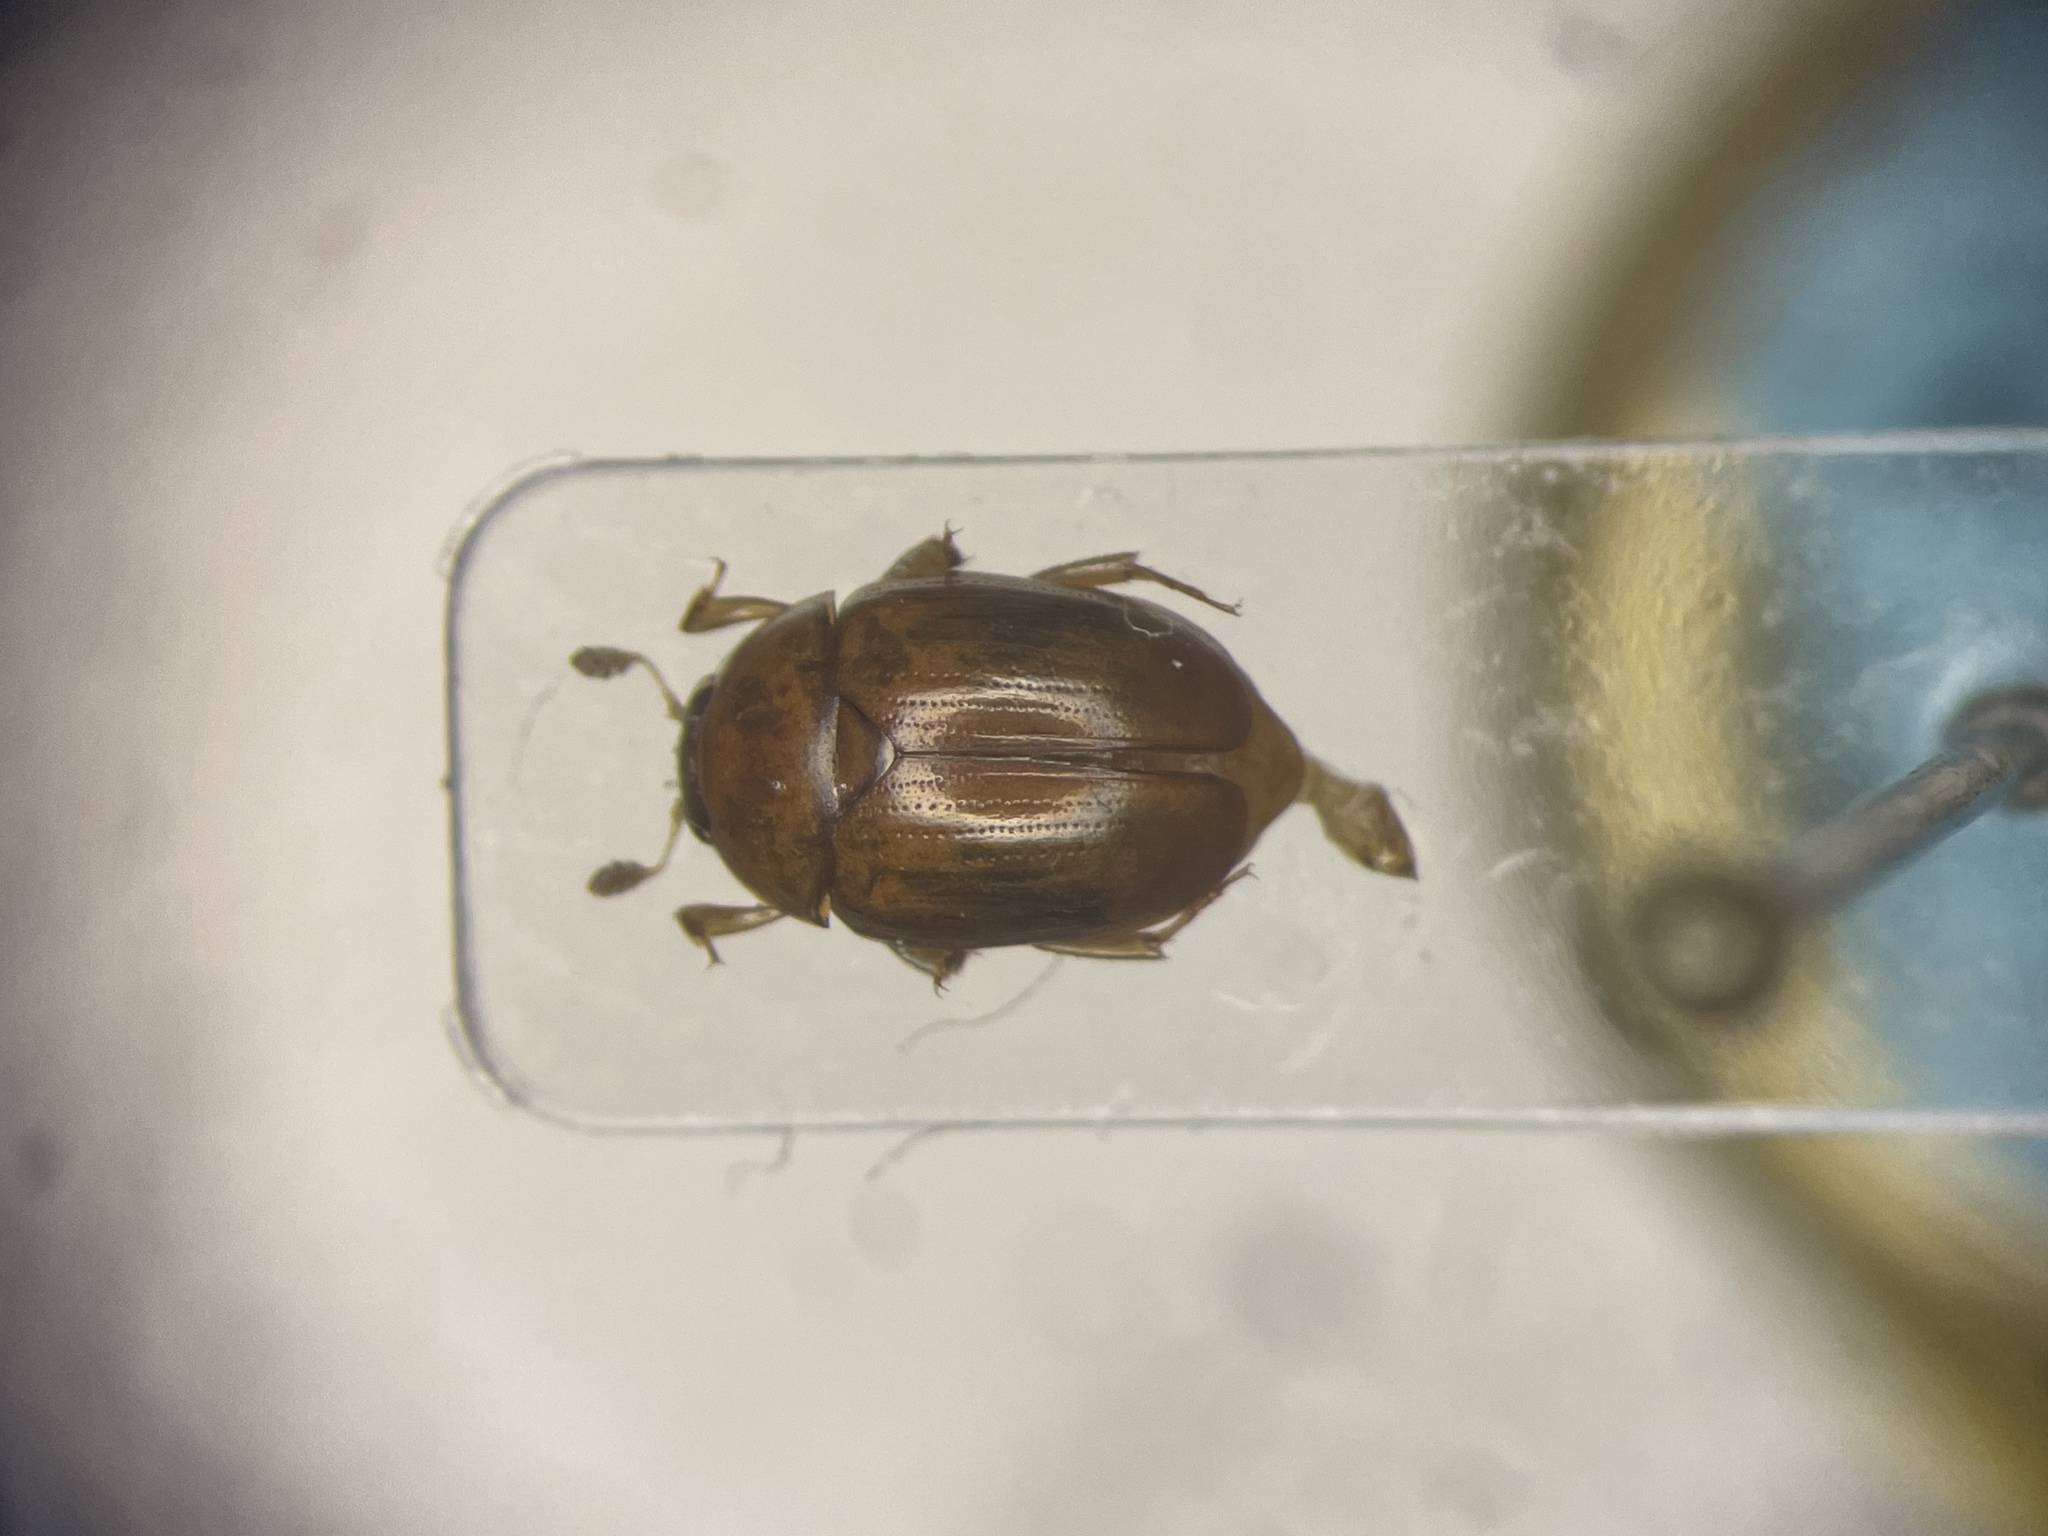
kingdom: Animalia
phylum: Arthropoda
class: Insecta
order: Coleoptera
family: Nitidulidae
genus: Pallodes
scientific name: Pallodes pallidus
